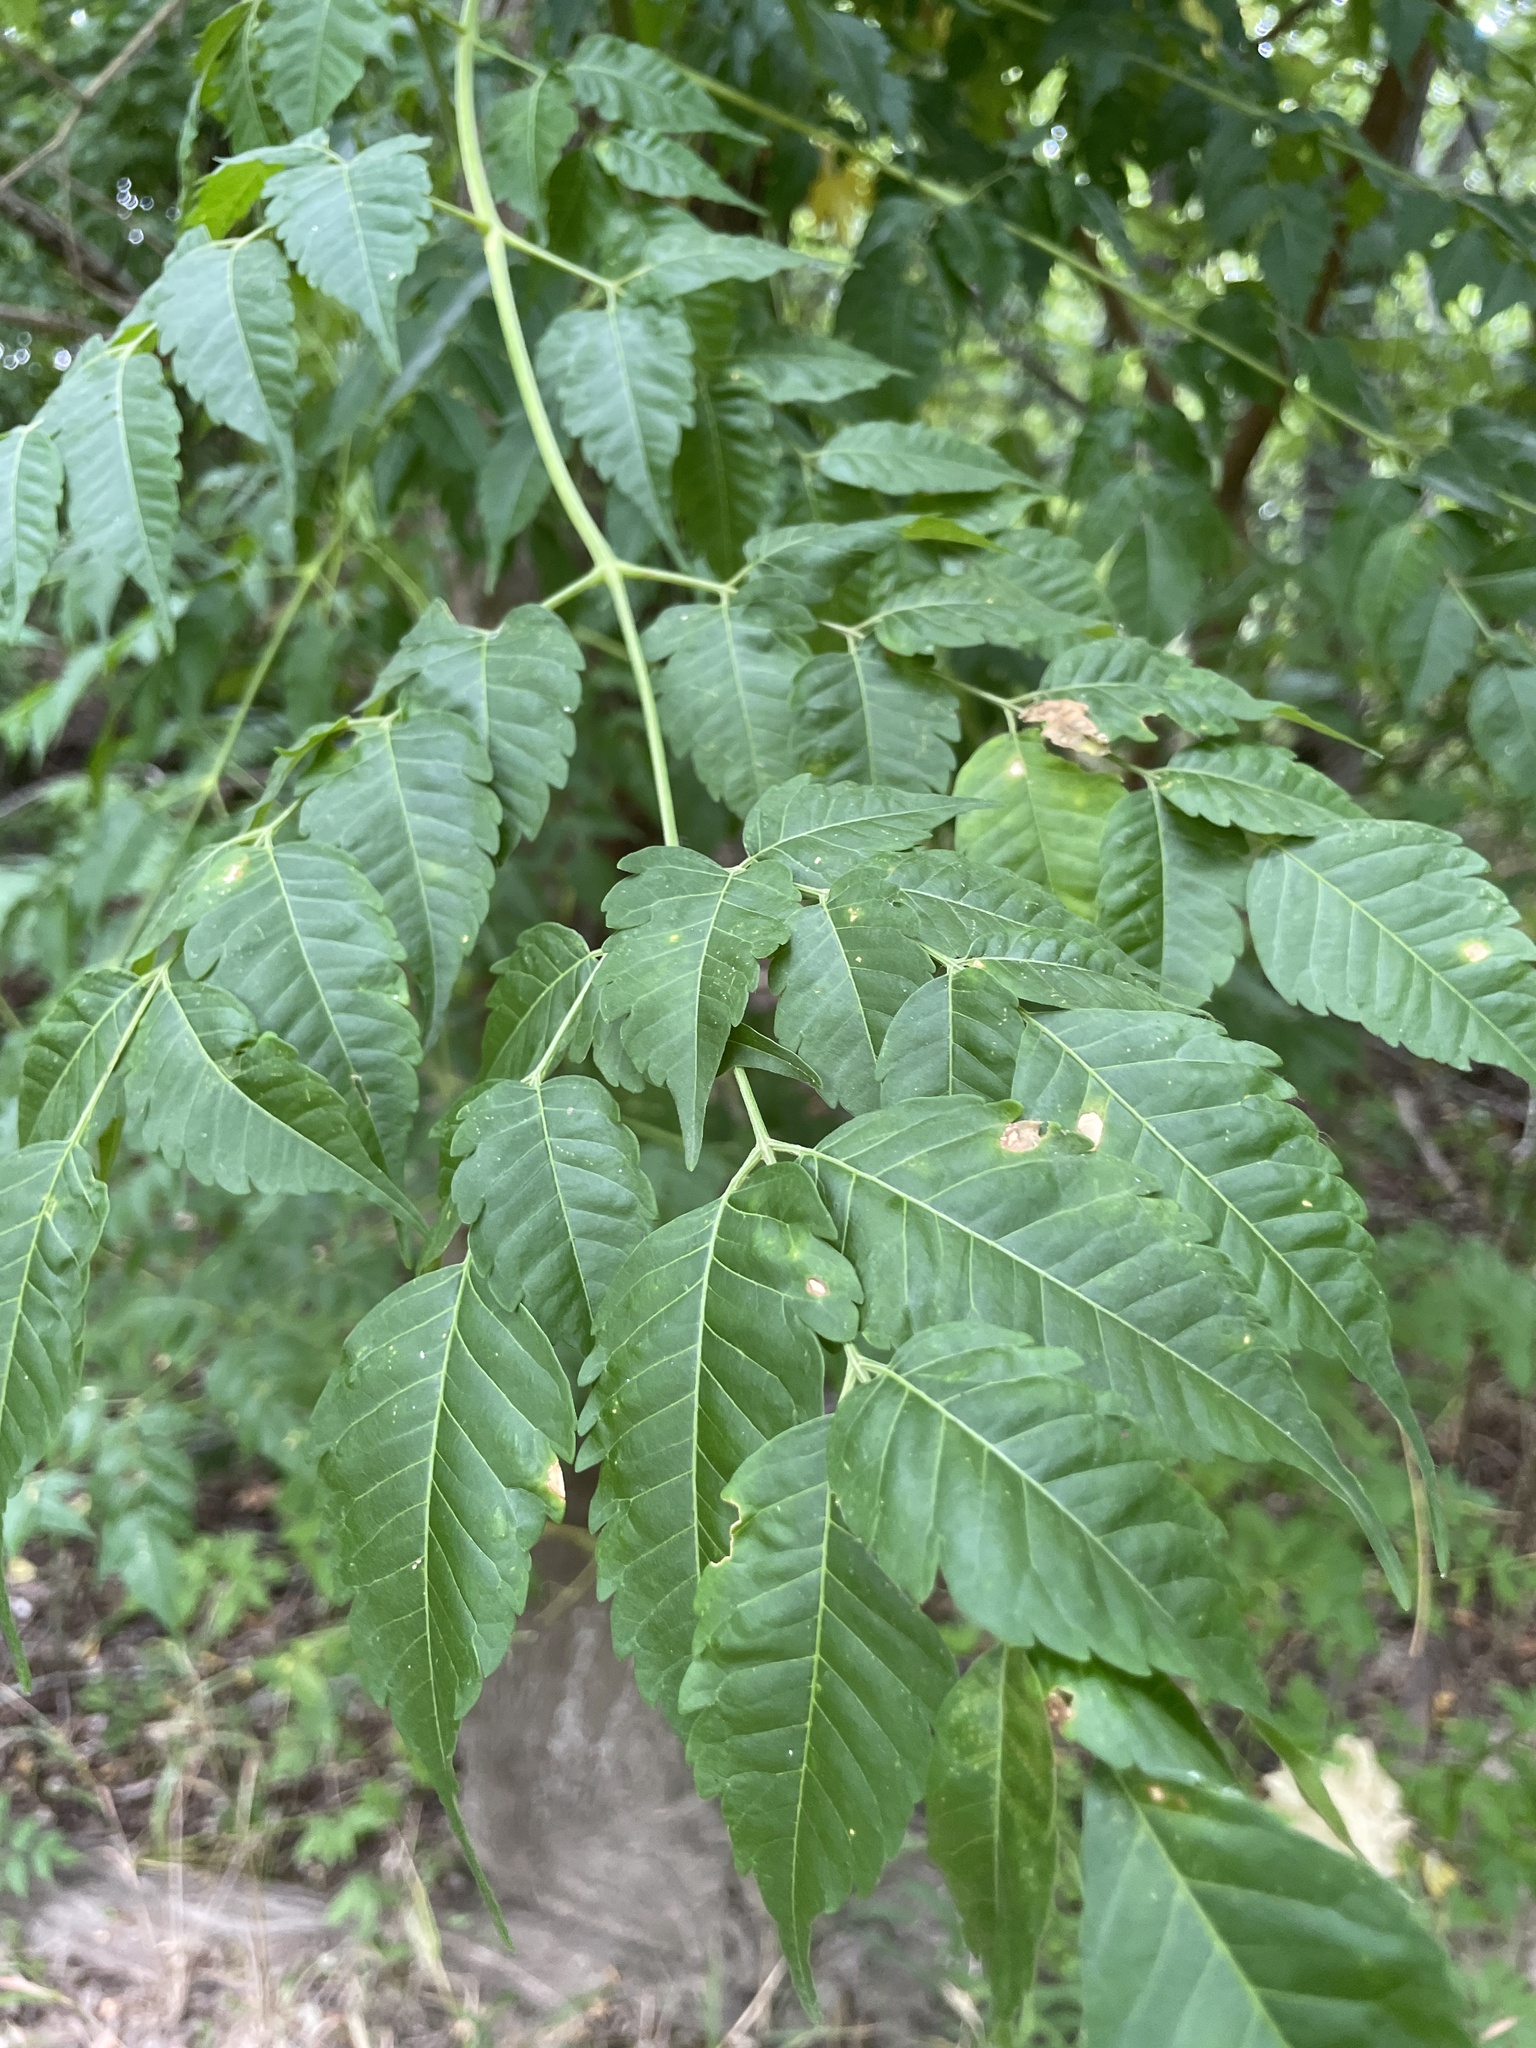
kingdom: Plantae
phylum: Tracheophyta
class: Magnoliopsida
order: Sapindales
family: Meliaceae
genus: Melia
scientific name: Melia azedarach
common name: Chinaberrytree
